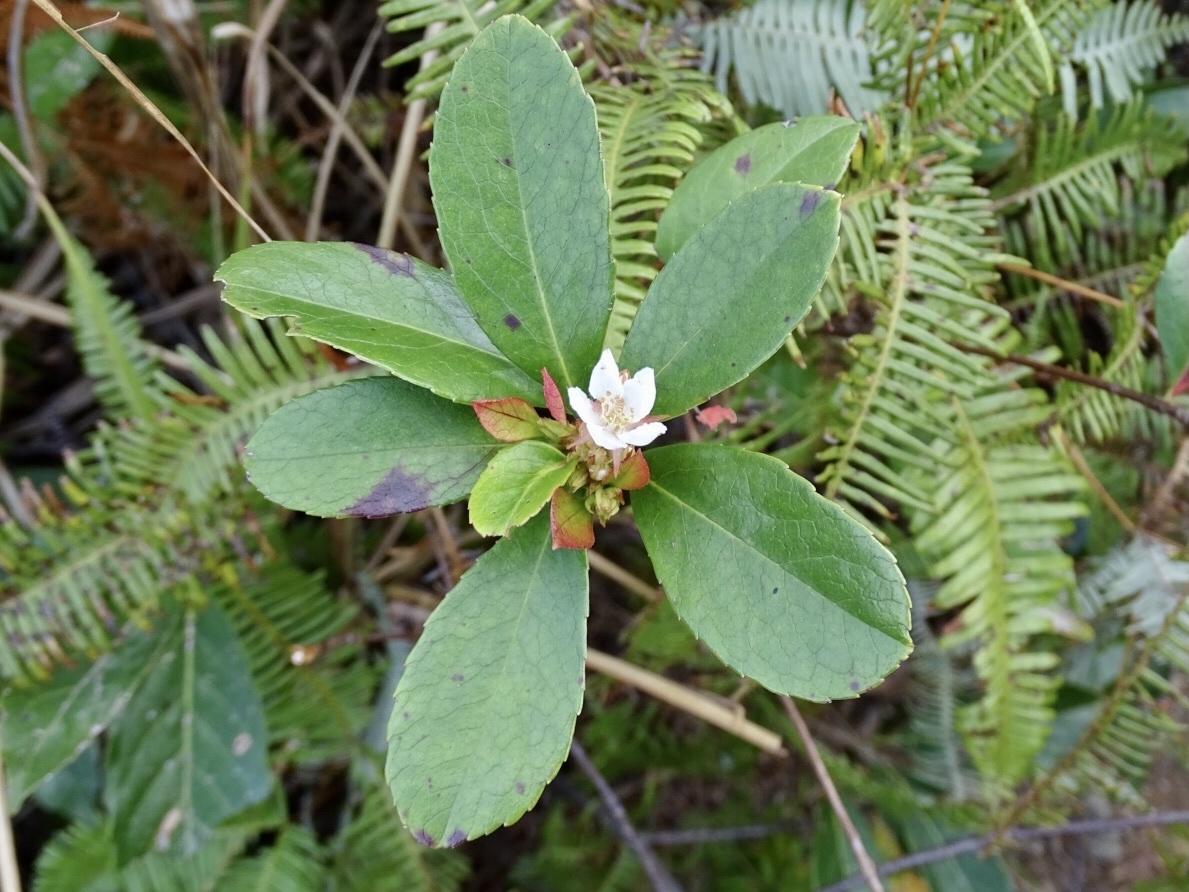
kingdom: Plantae
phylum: Tracheophyta
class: Magnoliopsida
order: Rosales
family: Rosaceae
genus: Rhaphiolepis
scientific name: Rhaphiolepis indica
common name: India-hawthorn
